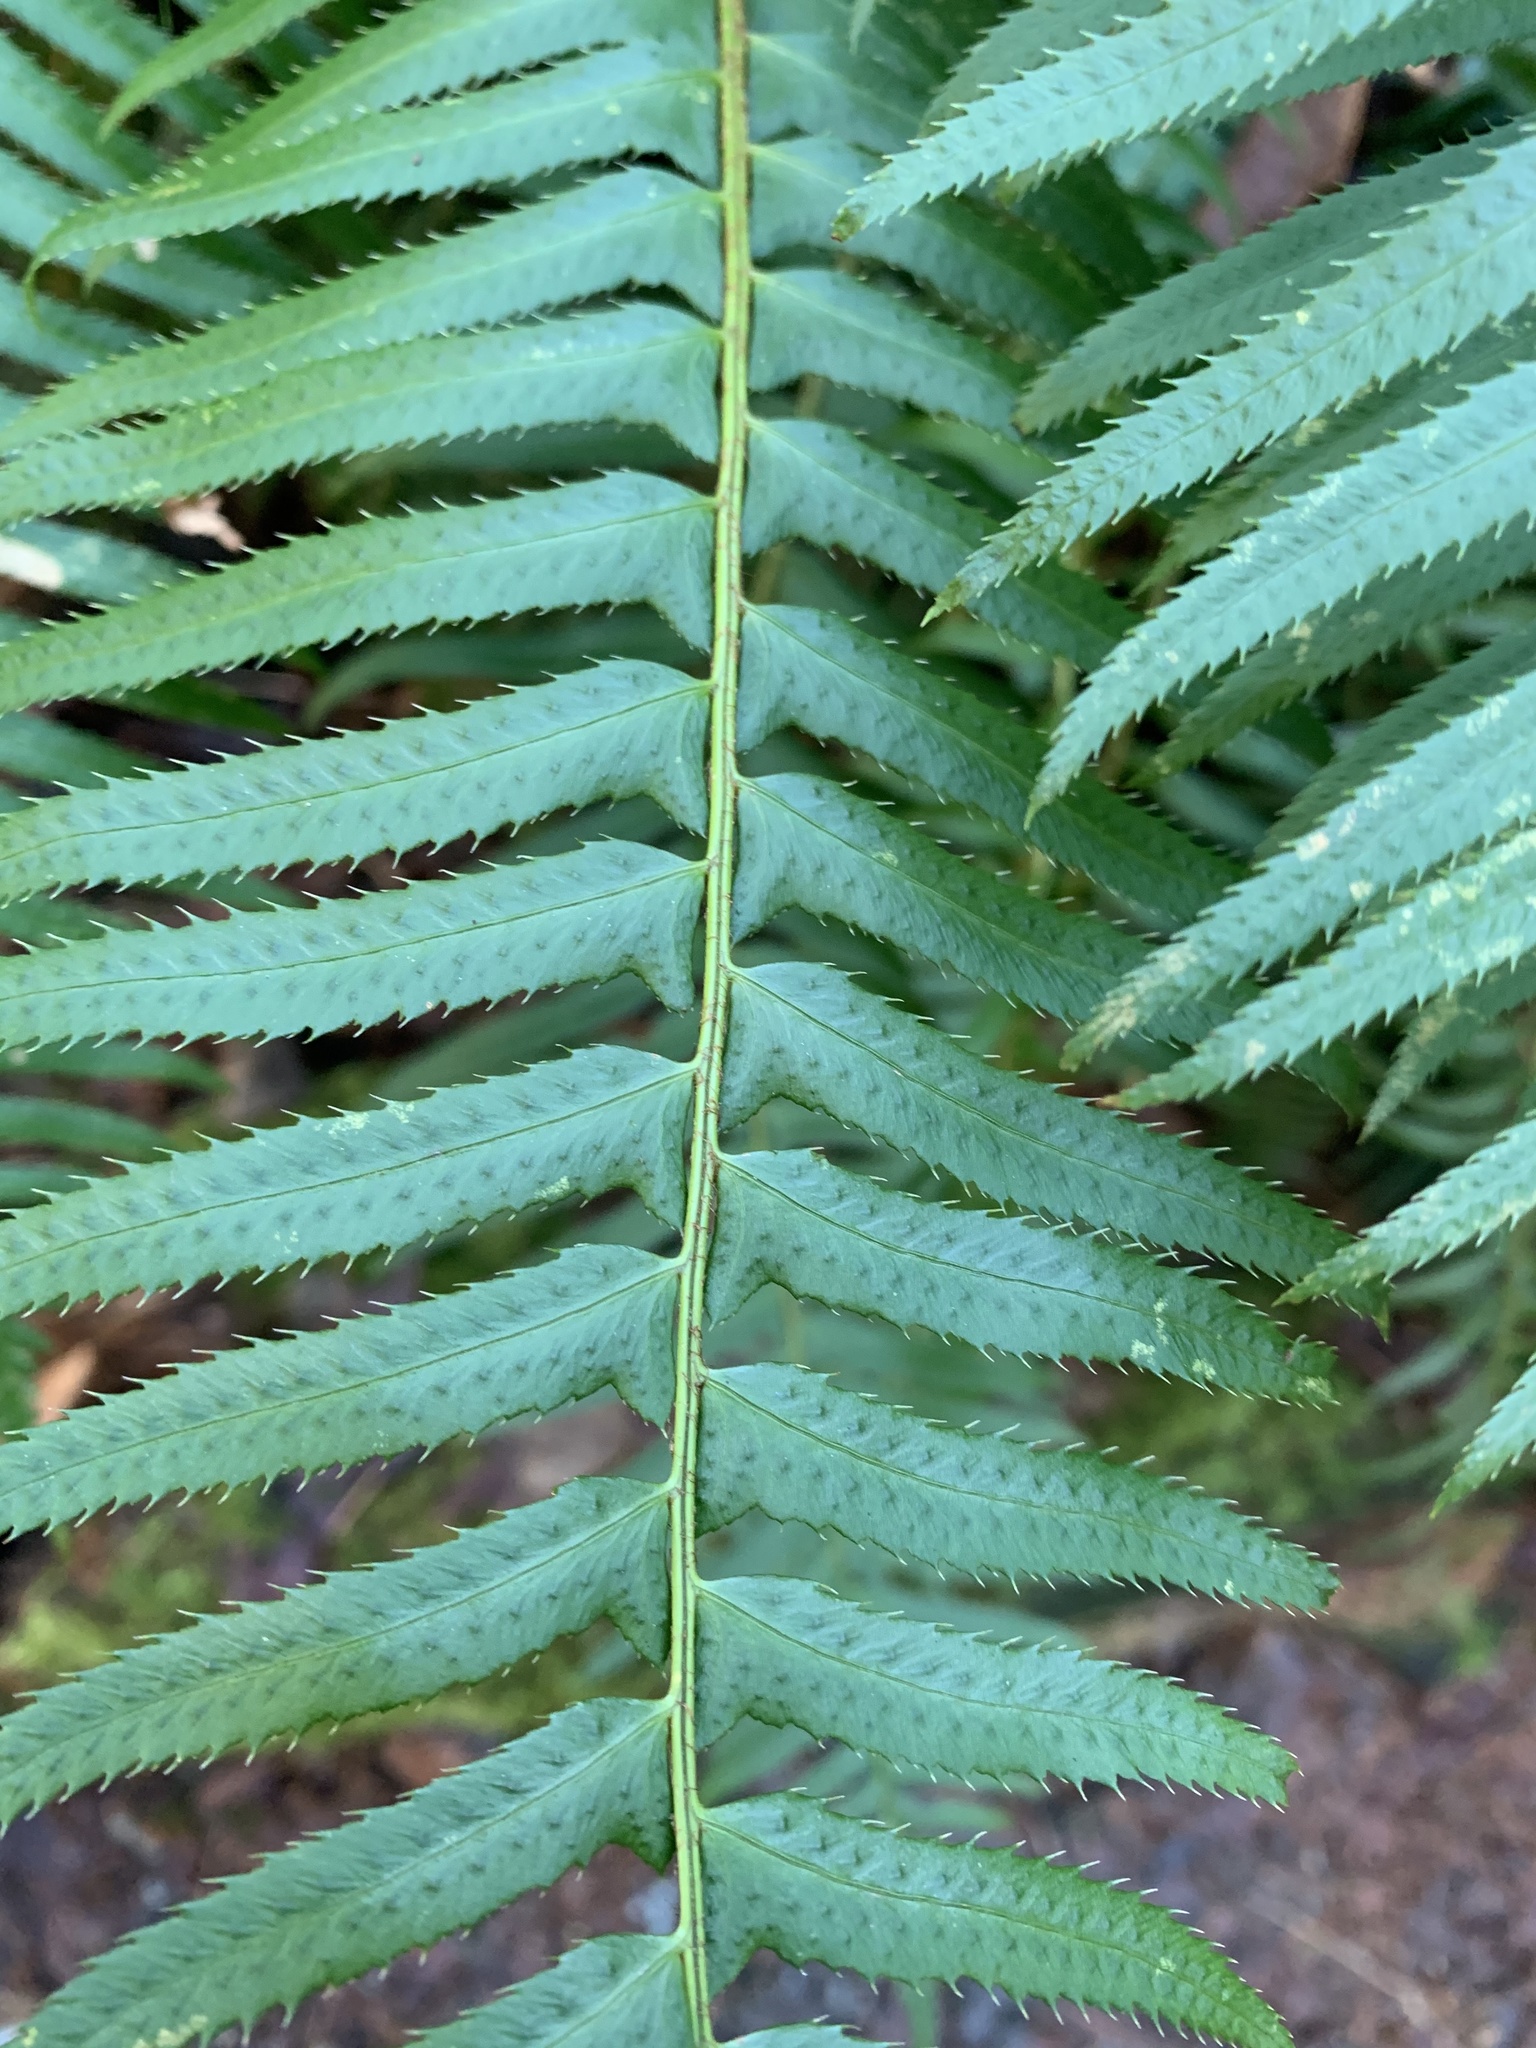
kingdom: Plantae
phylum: Tracheophyta
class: Polypodiopsida
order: Polypodiales
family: Dryopteridaceae
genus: Polystichum
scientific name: Polystichum munitum
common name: Western sword-fern
